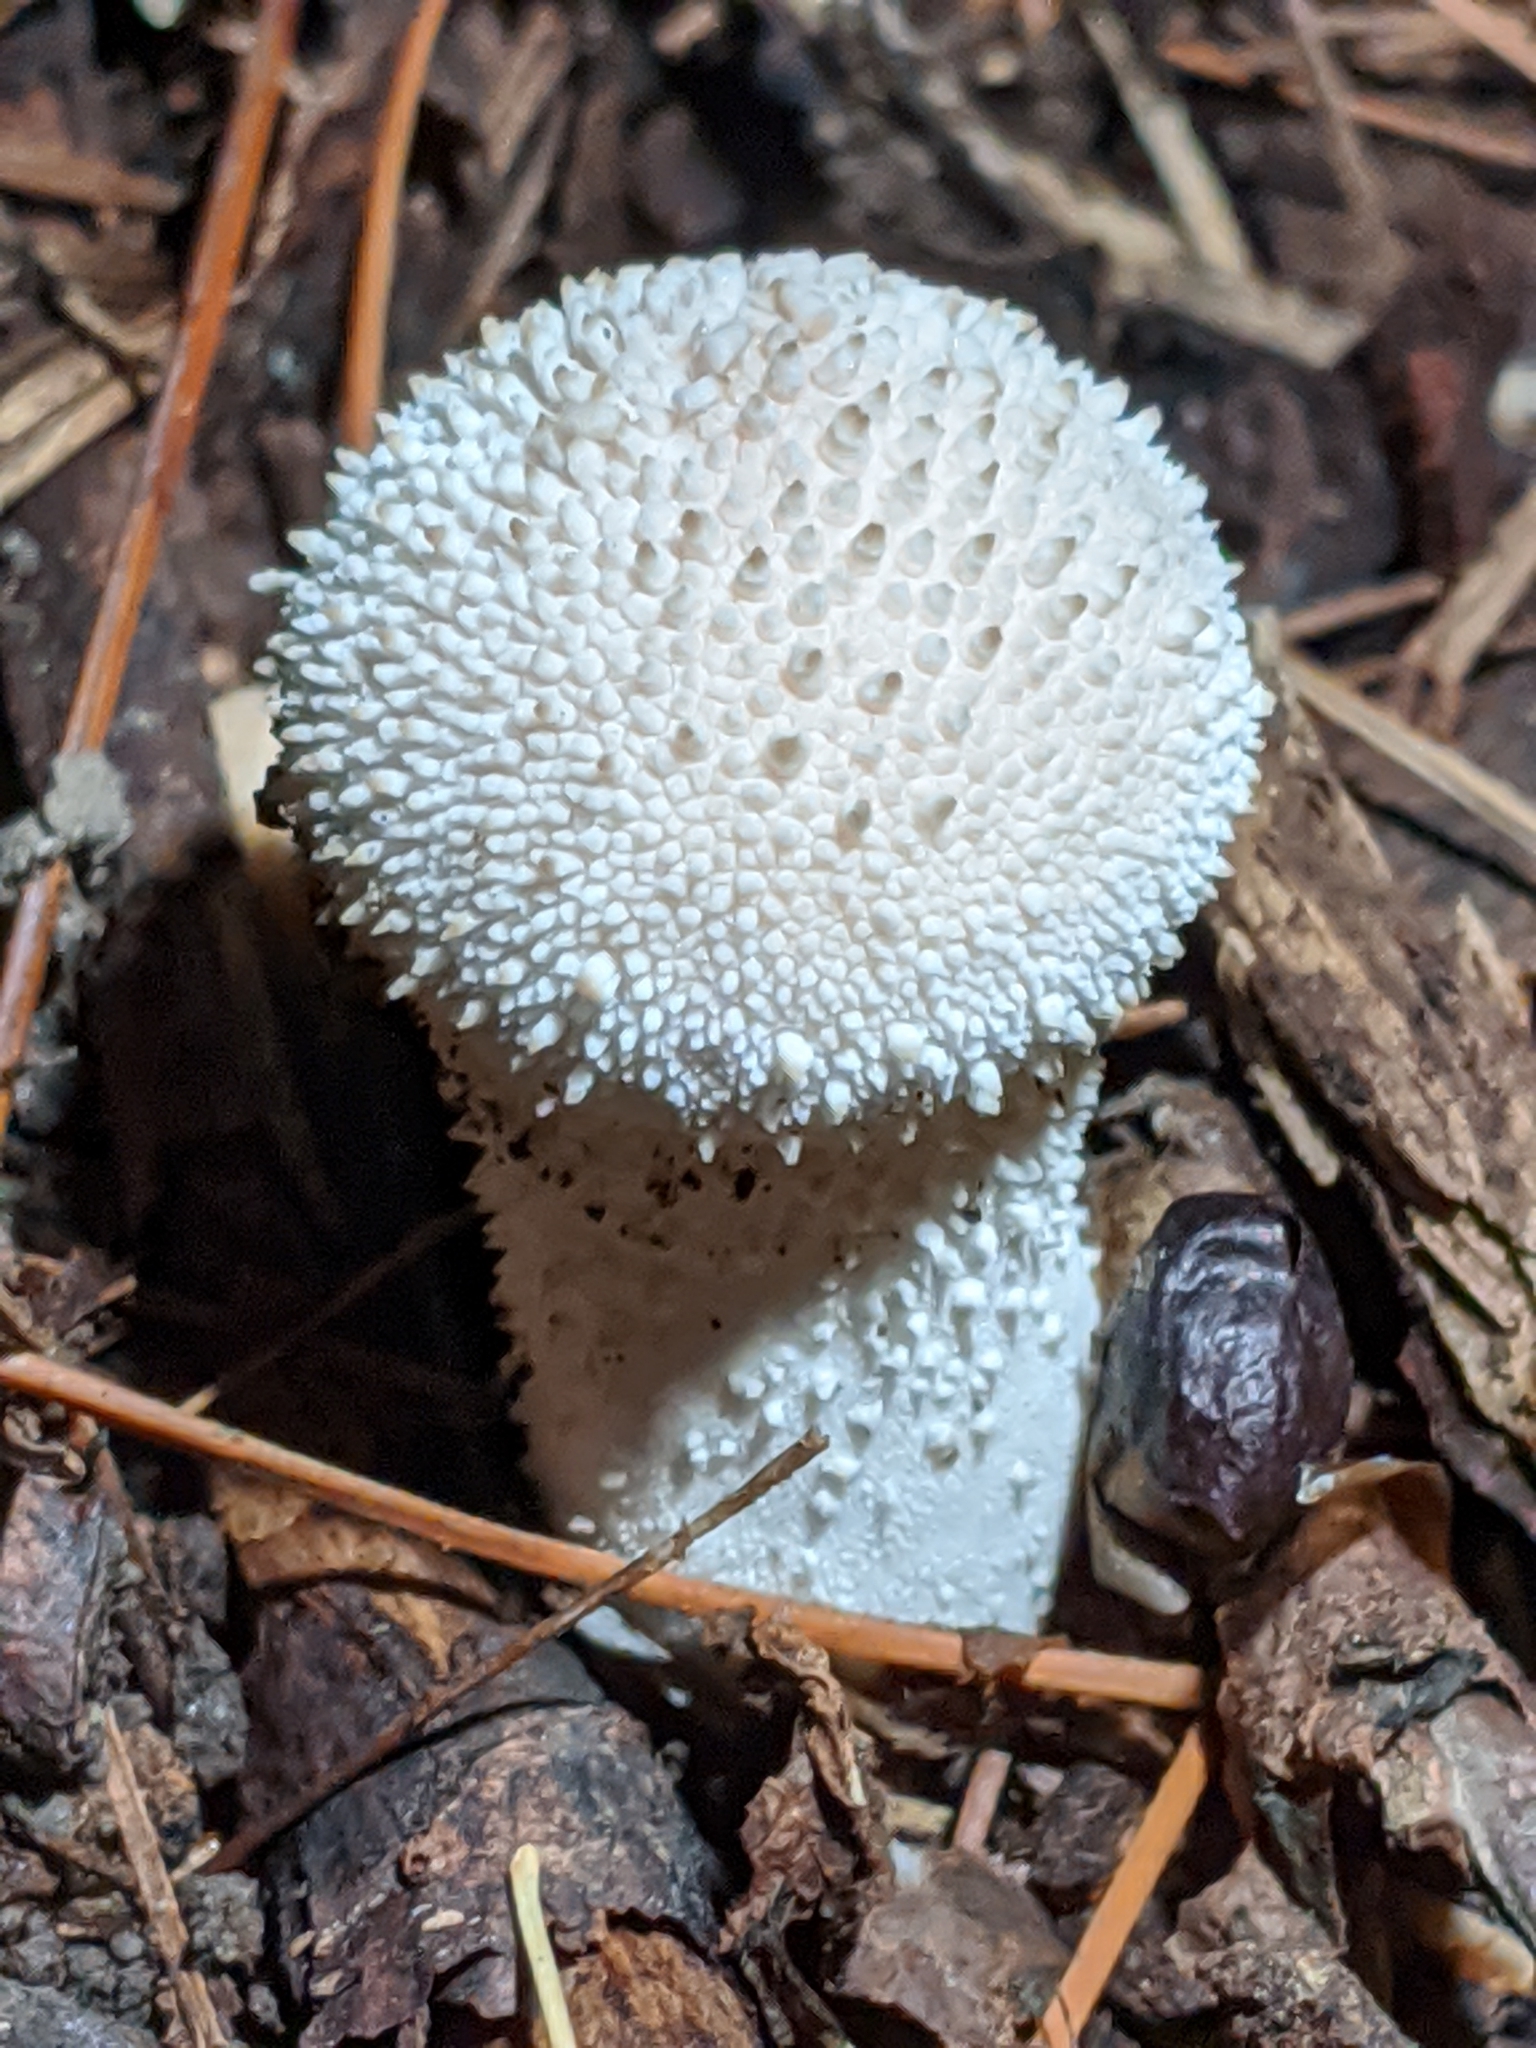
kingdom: Fungi
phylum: Basidiomycota
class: Agaricomycetes
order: Agaricales
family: Lycoperdaceae
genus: Lycoperdon
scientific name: Lycoperdon perlatum
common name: Common puffball
